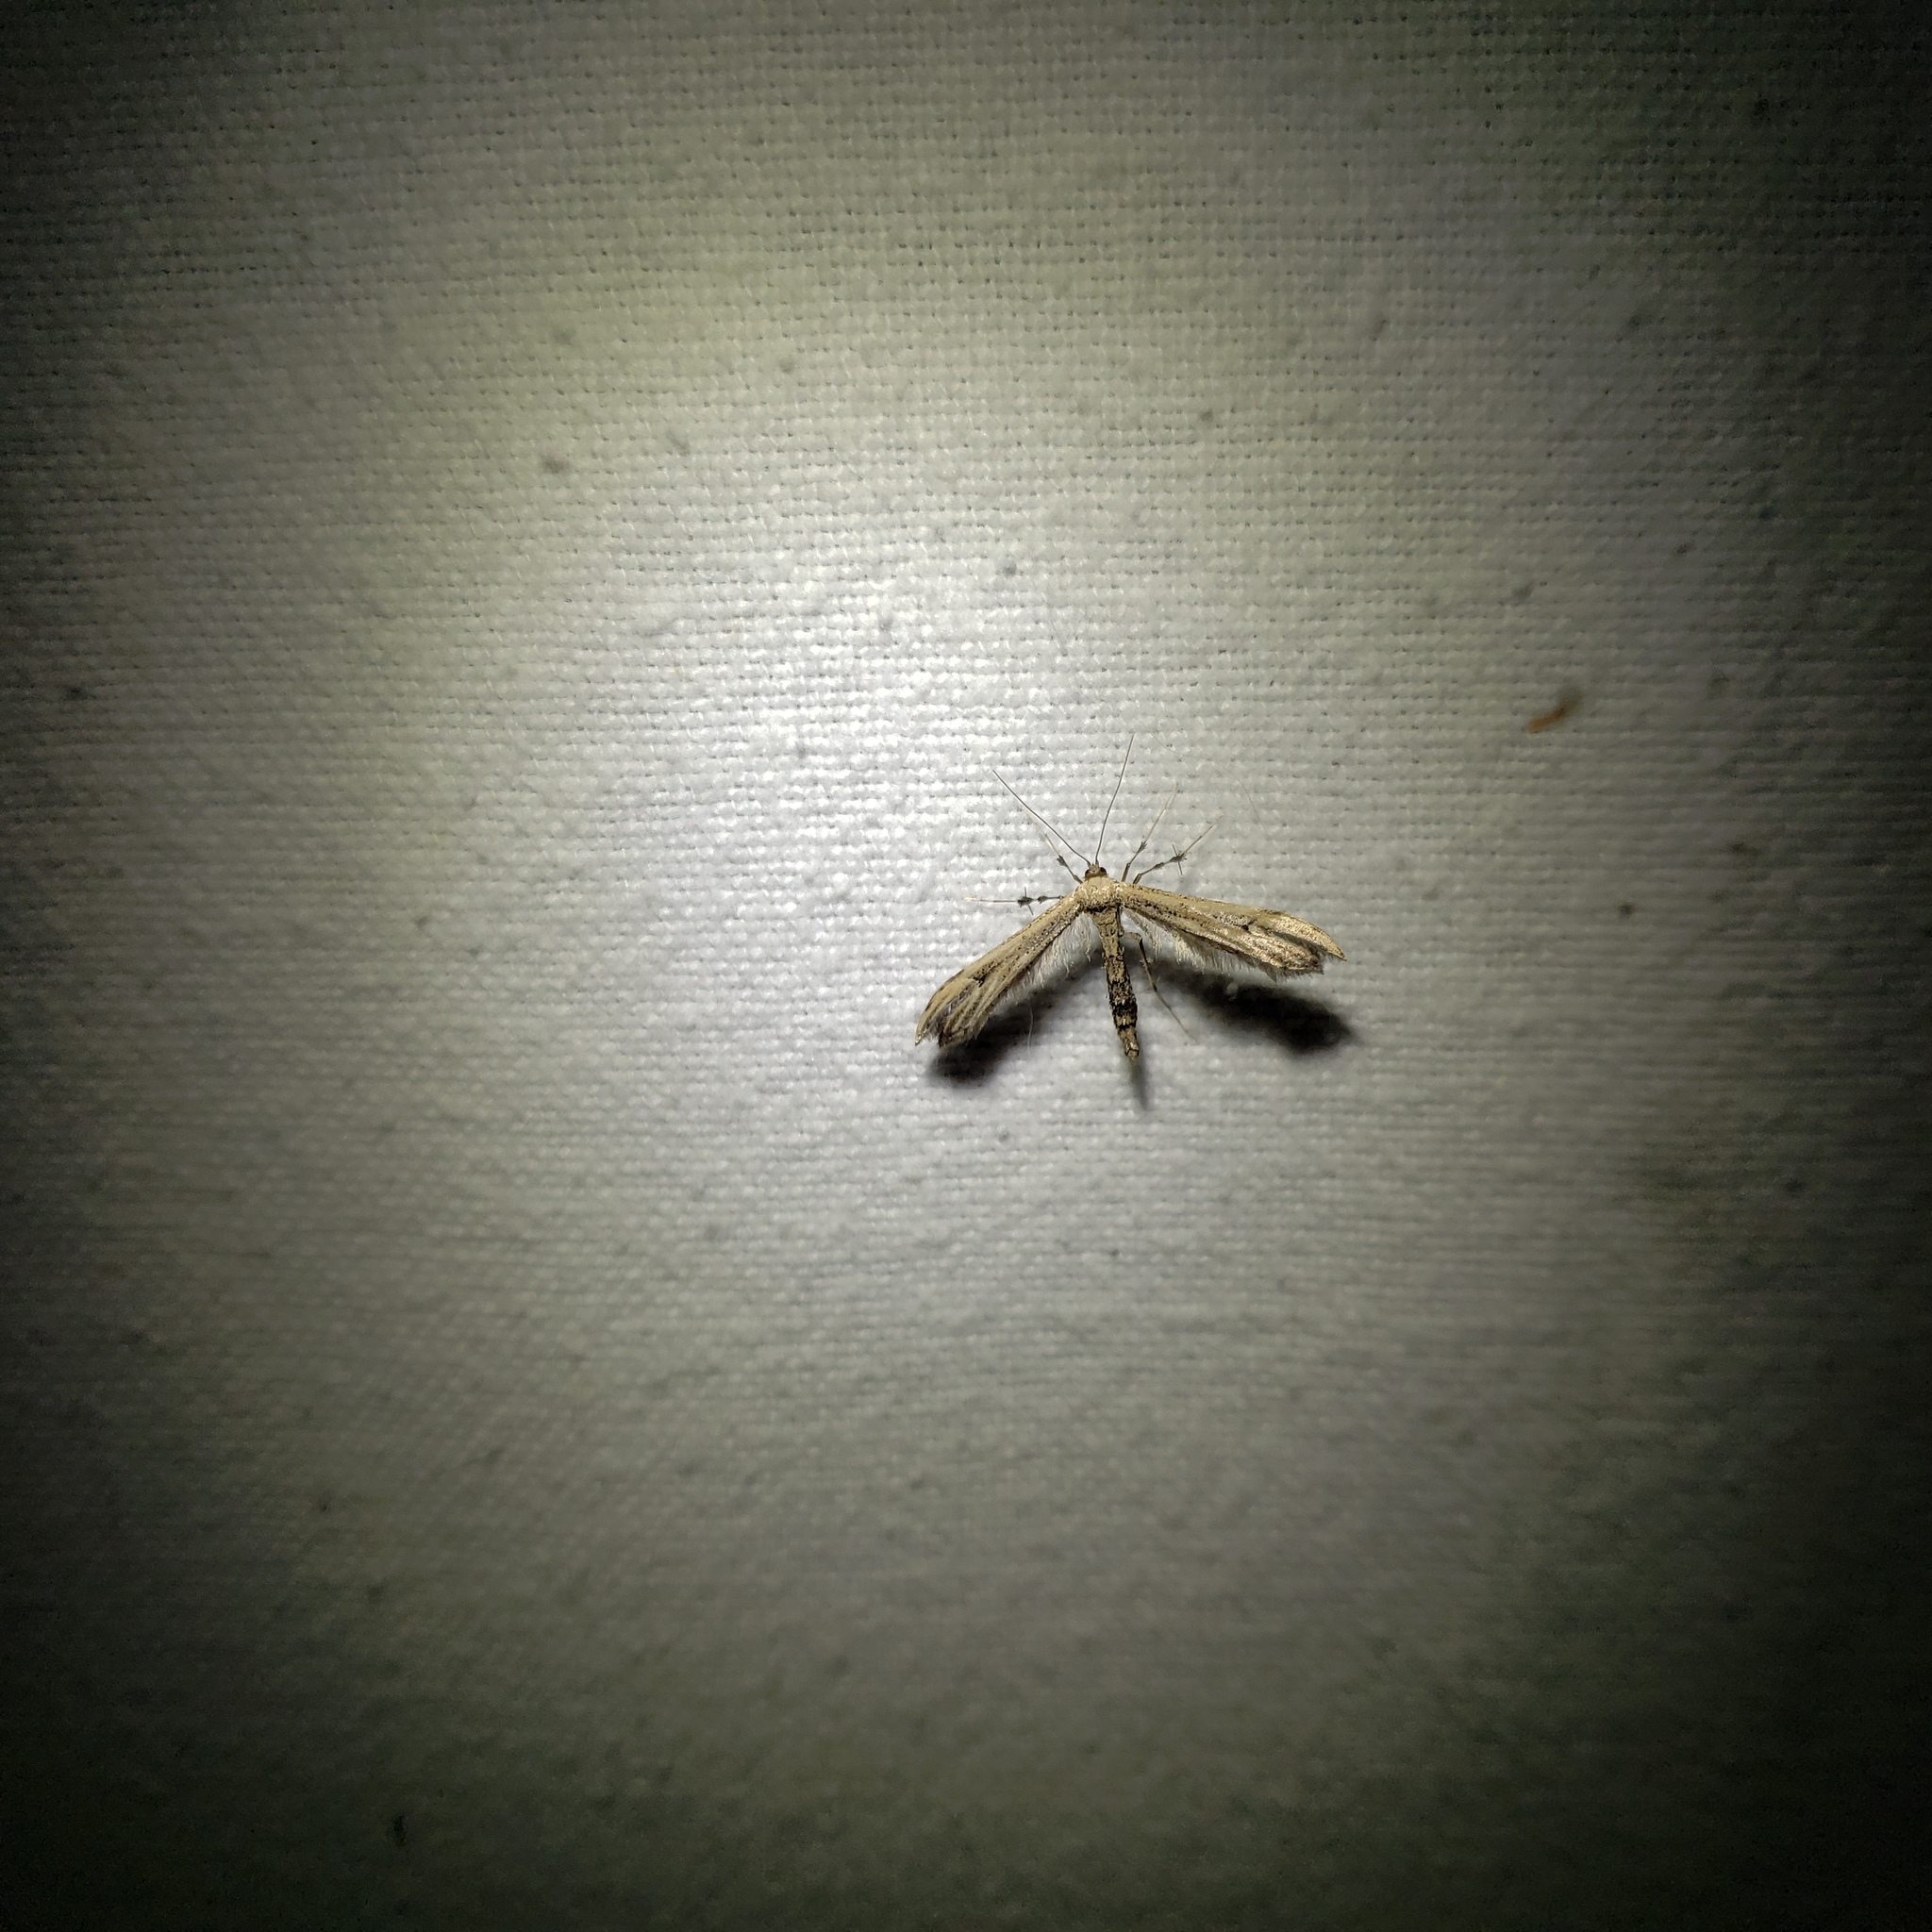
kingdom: Animalia
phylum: Arthropoda
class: Insecta
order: Lepidoptera
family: Pterophoridae
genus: Oidaematophorus
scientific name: Oidaematophorus eupatorii
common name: Eupatorium plume moth
